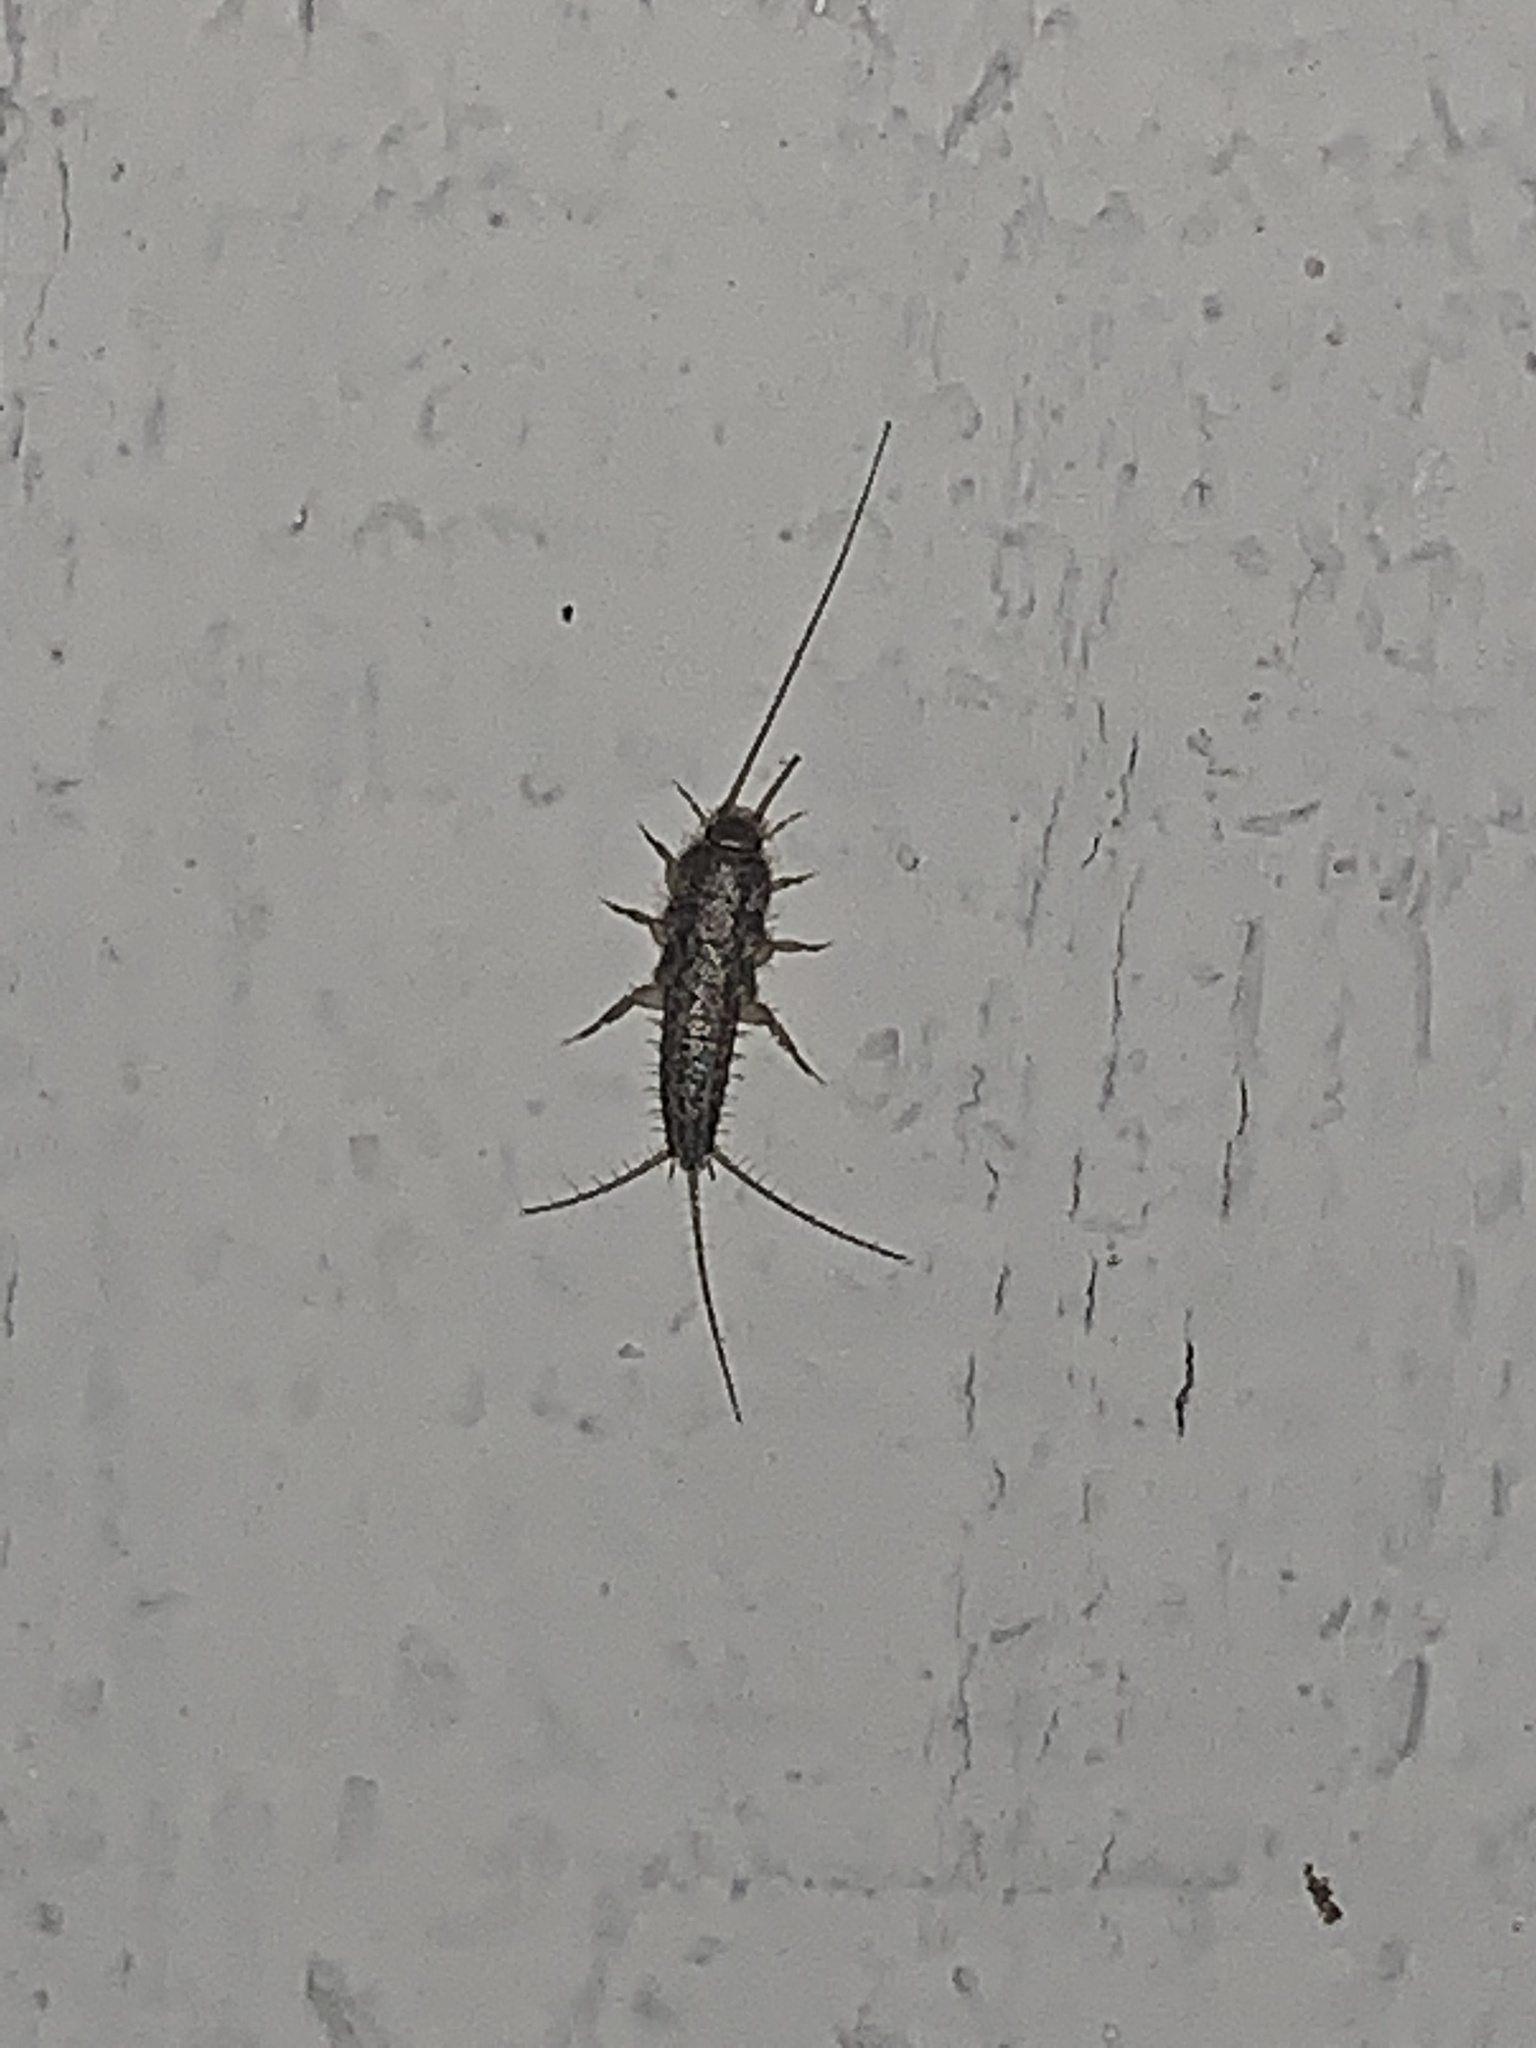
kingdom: Animalia
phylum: Arthropoda
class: Insecta
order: Zygentoma
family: Lepismatidae
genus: Ctenolepisma
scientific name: Ctenolepisma lineata
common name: Four-lined silverfish
